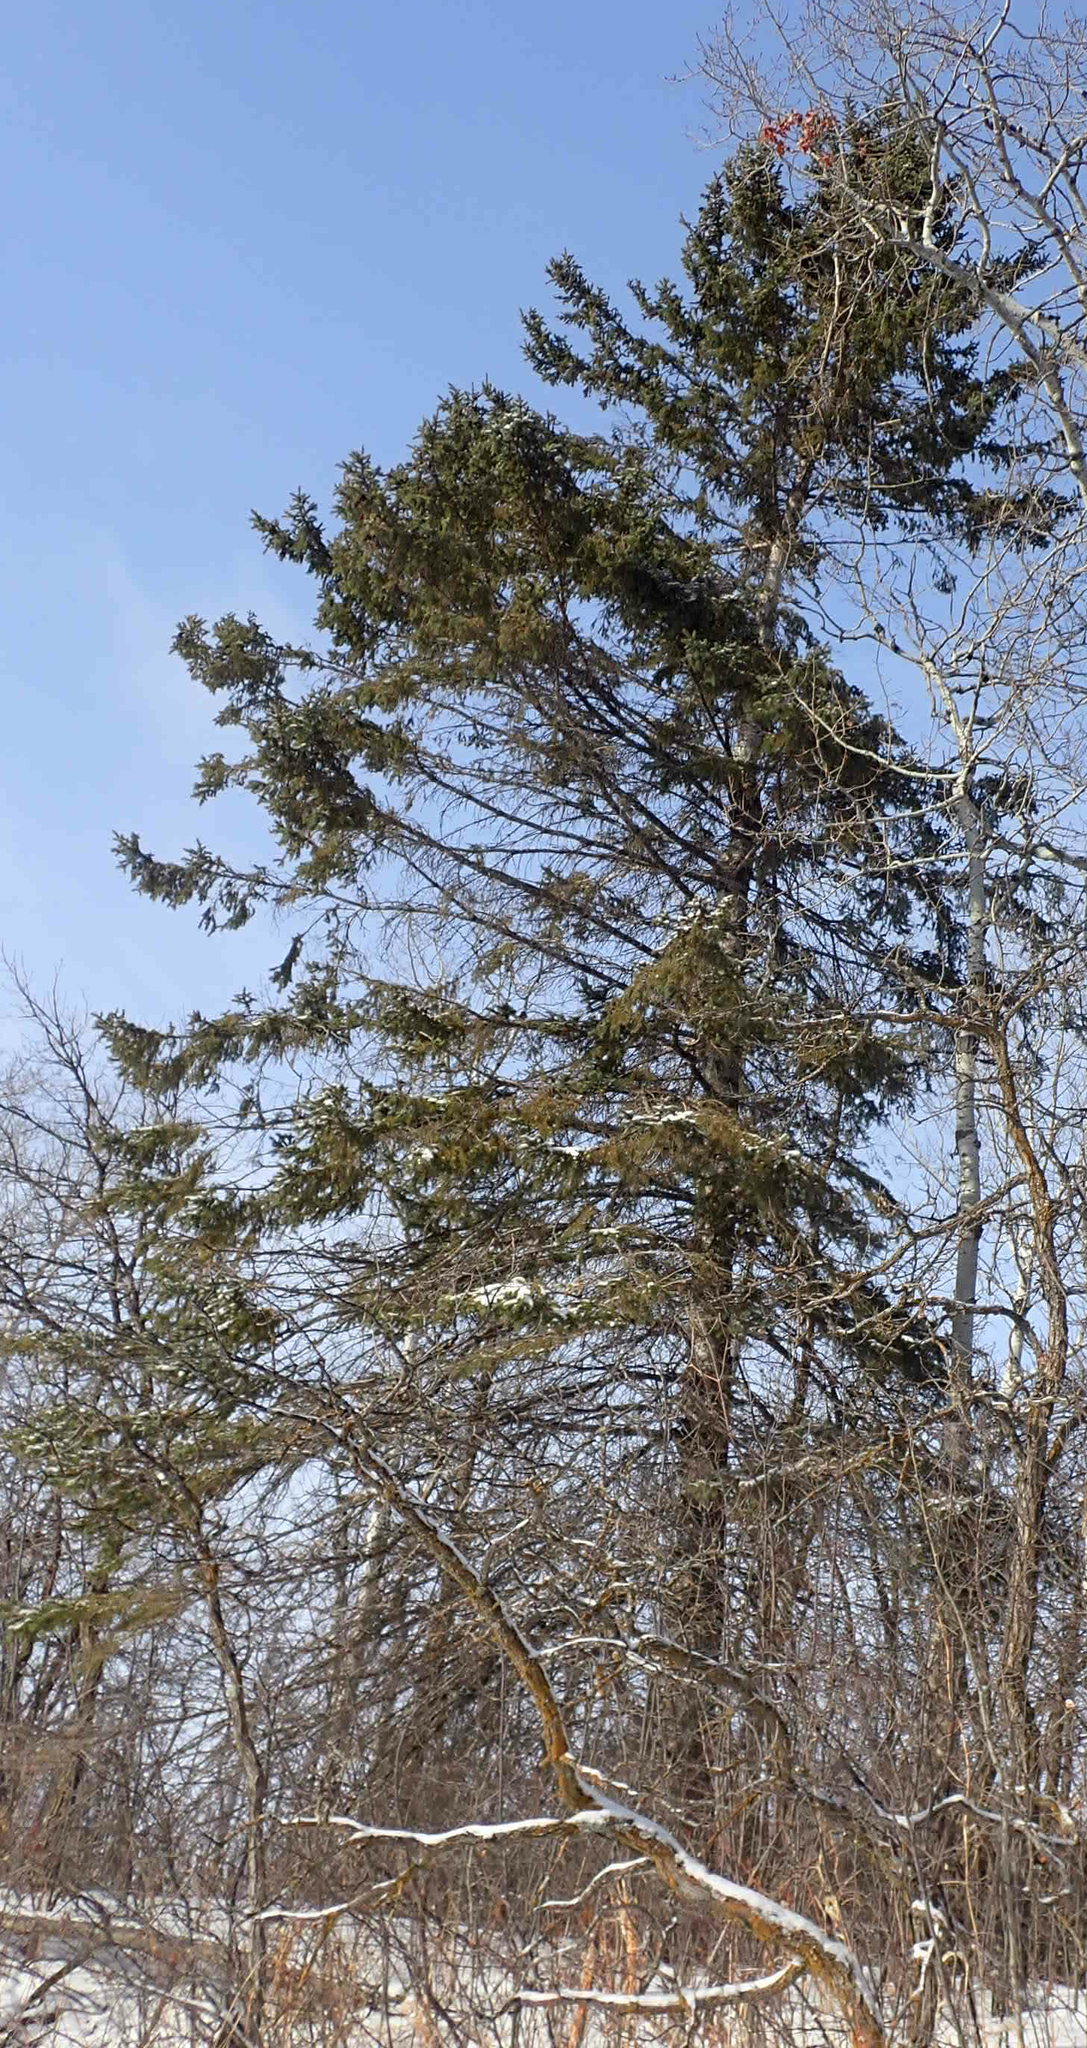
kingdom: Plantae
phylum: Tracheophyta
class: Pinopsida
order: Pinales
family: Pinaceae
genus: Picea
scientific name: Picea glauca
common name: White spruce
